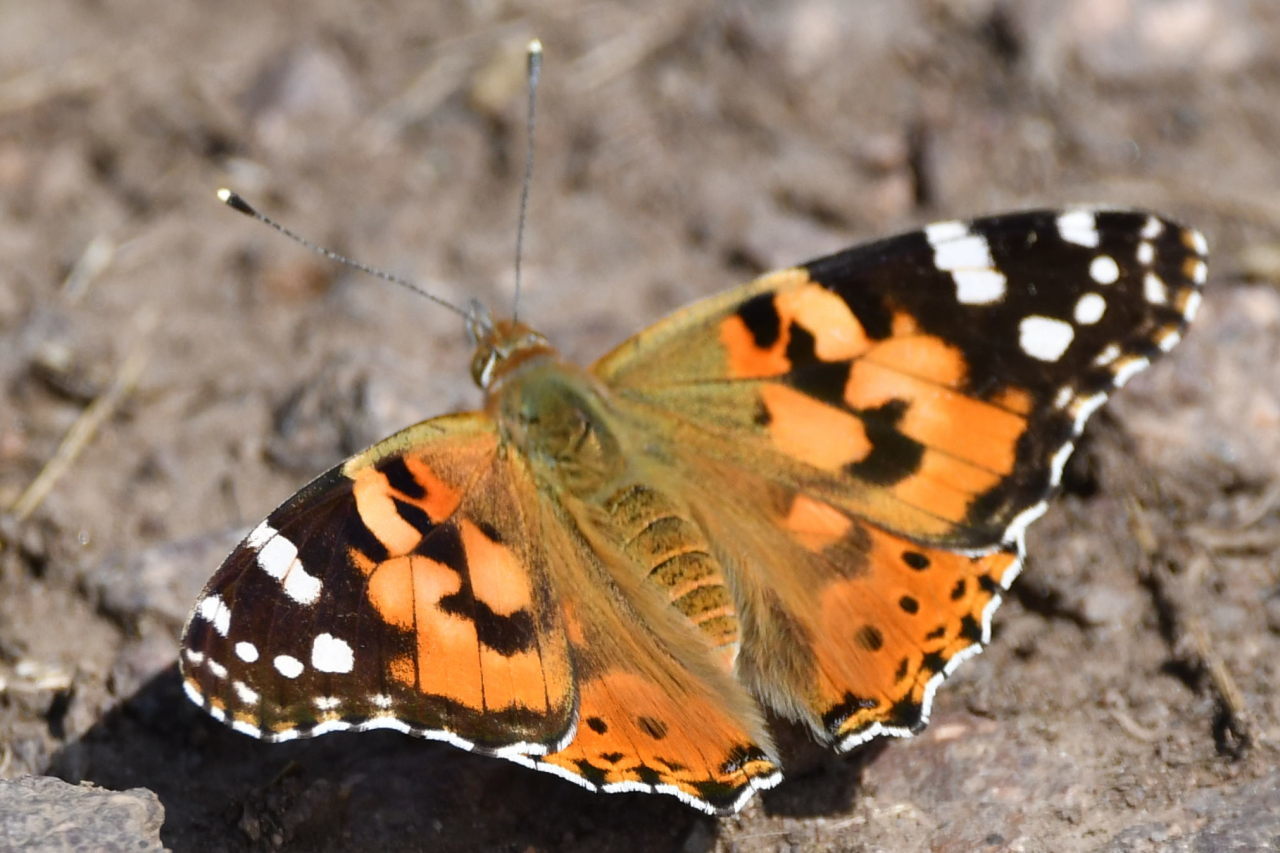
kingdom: Animalia
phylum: Arthropoda
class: Insecta
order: Lepidoptera
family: Nymphalidae
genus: Vanessa
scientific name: Vanessa cardui
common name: Painted lady
